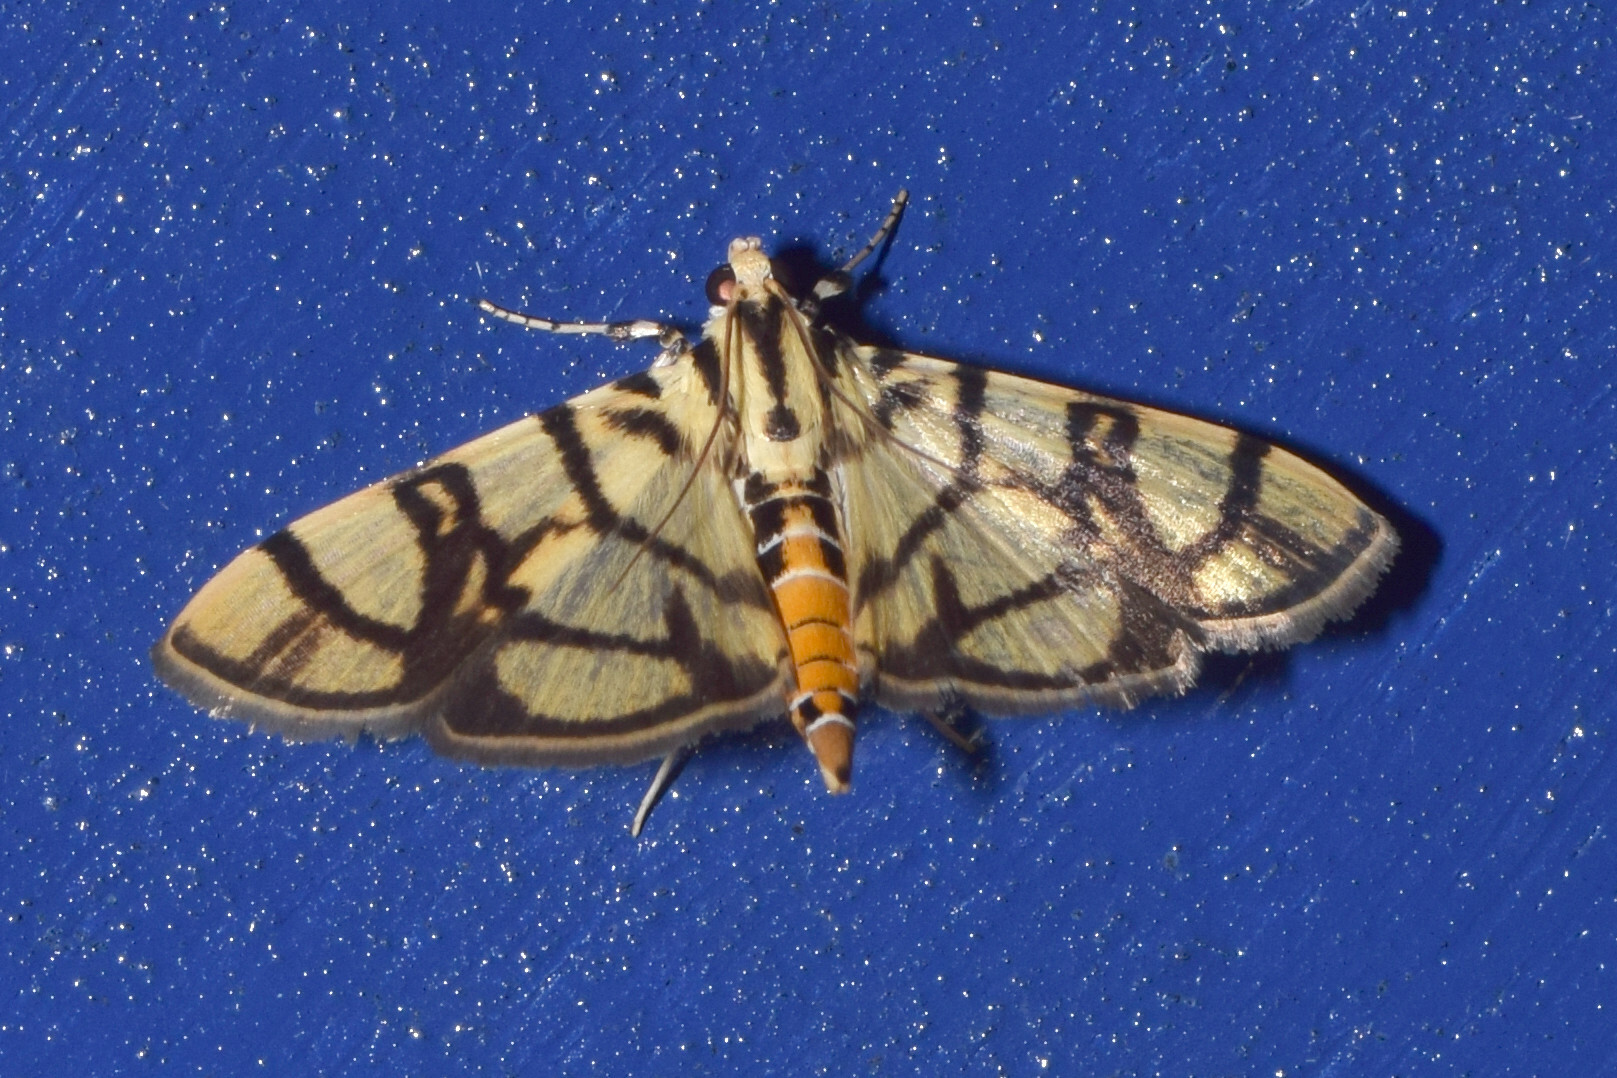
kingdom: Animalia
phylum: Arthropoda
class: Insecta
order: Lepidoptera
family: Crambidae
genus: Syllepte
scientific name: Syllepte gastralis
